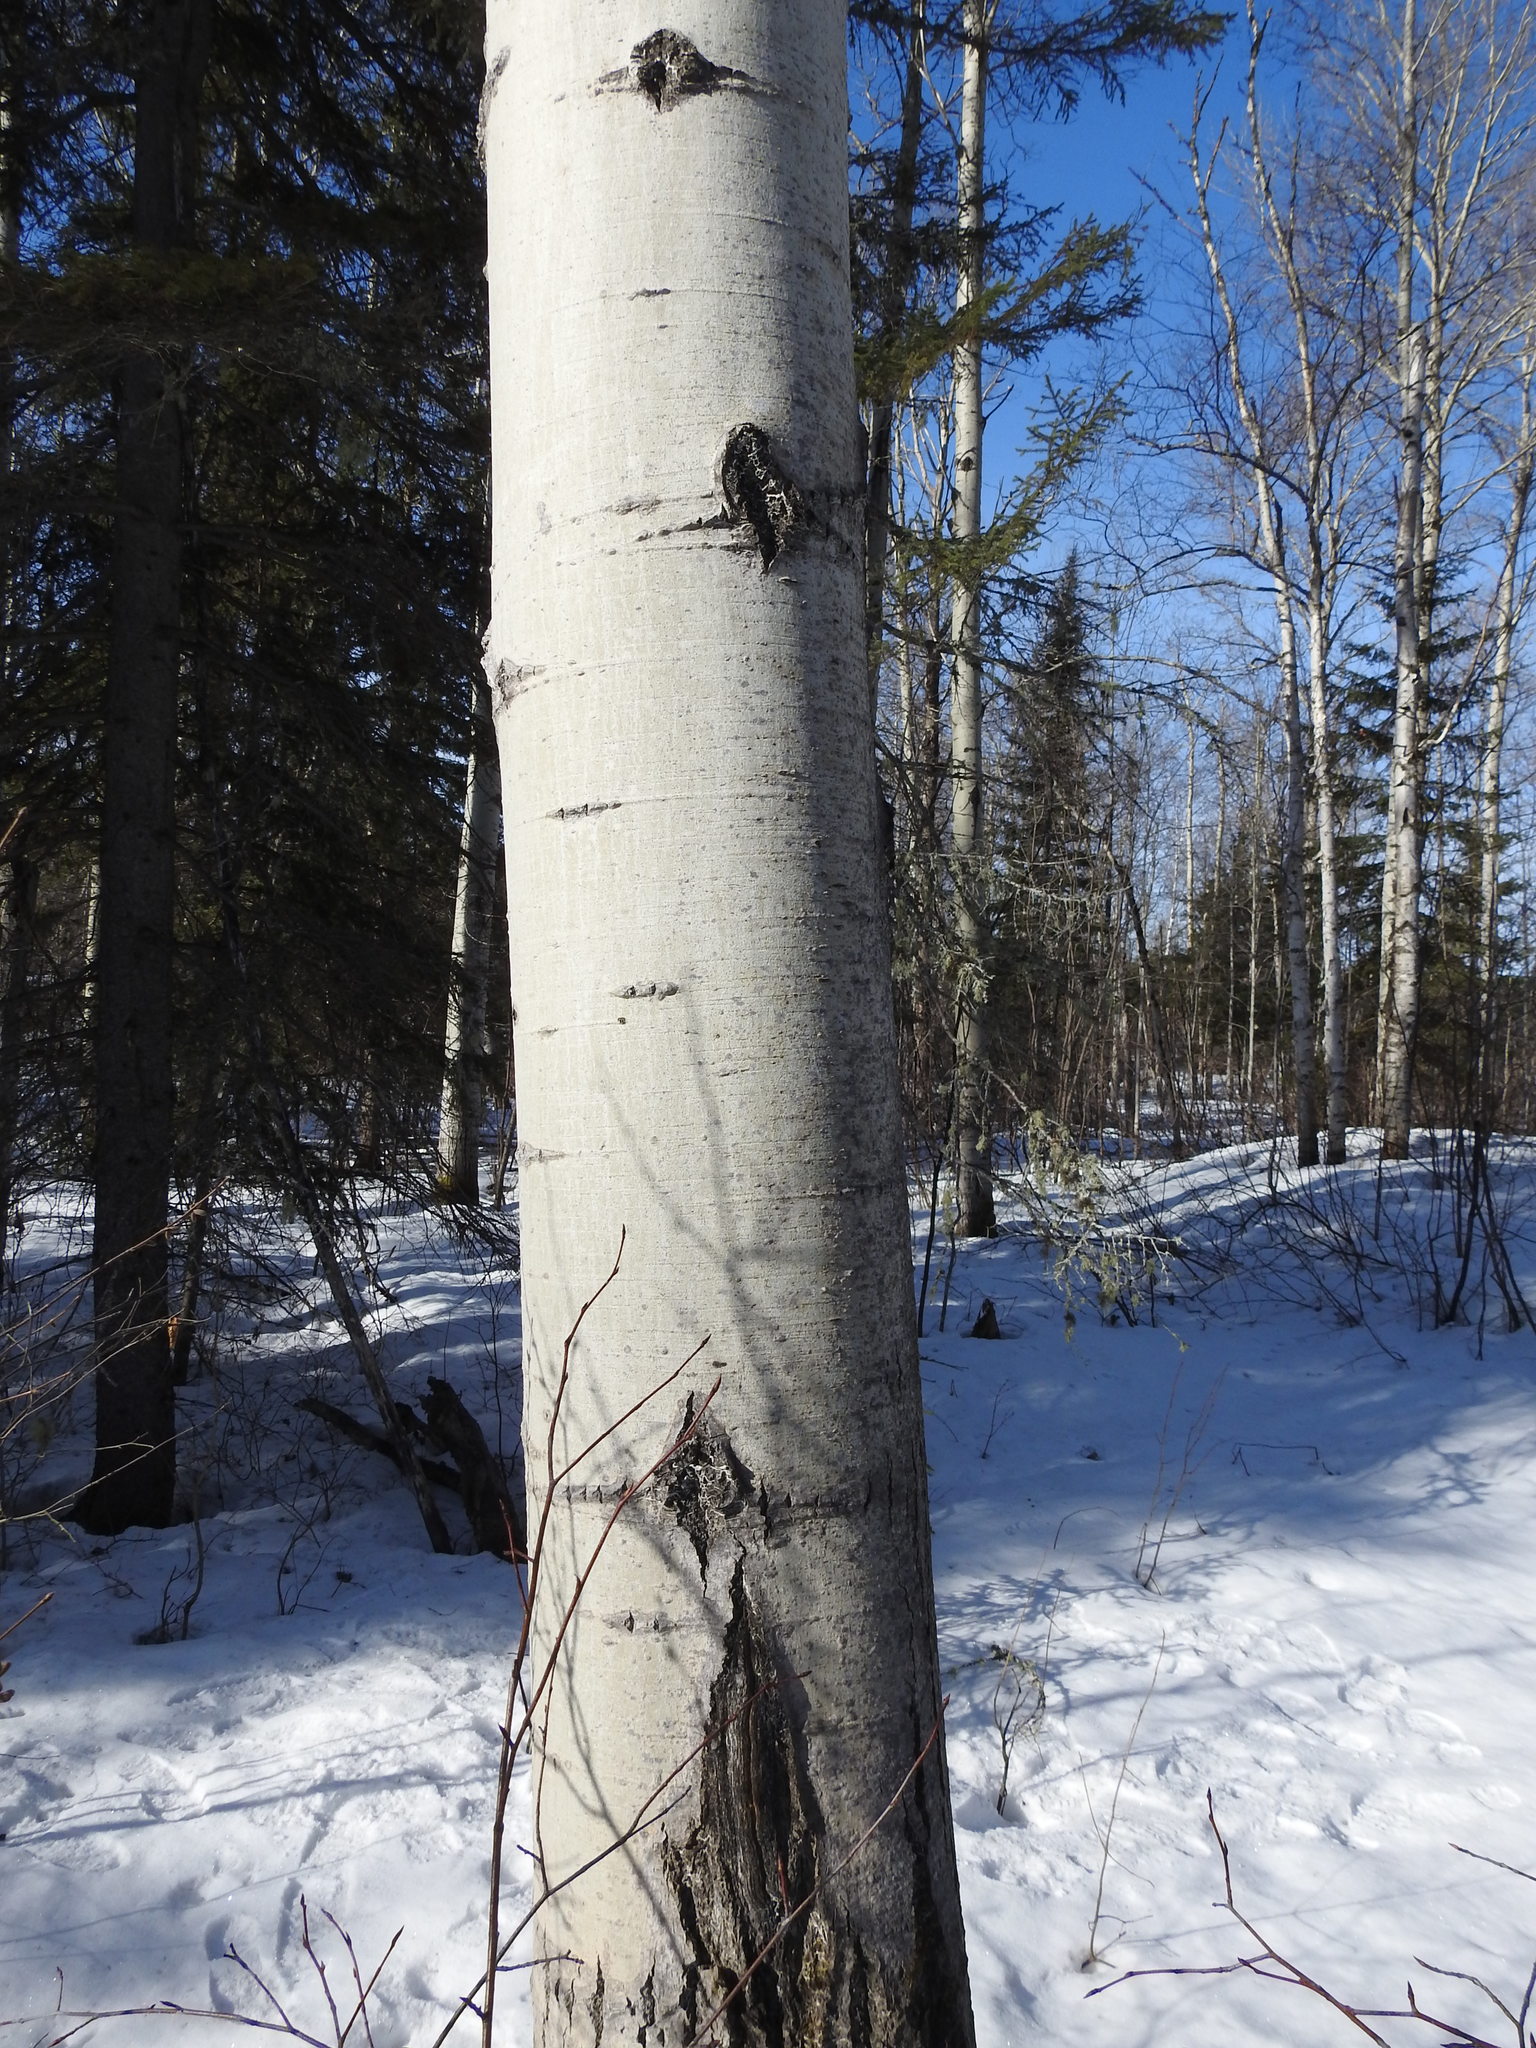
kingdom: Plantae
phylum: Tracheophyta
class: Magnoliopsida
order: Malpighiales
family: Salicaceae
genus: Populus
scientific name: Populus tremuloides
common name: Quaking aspen
